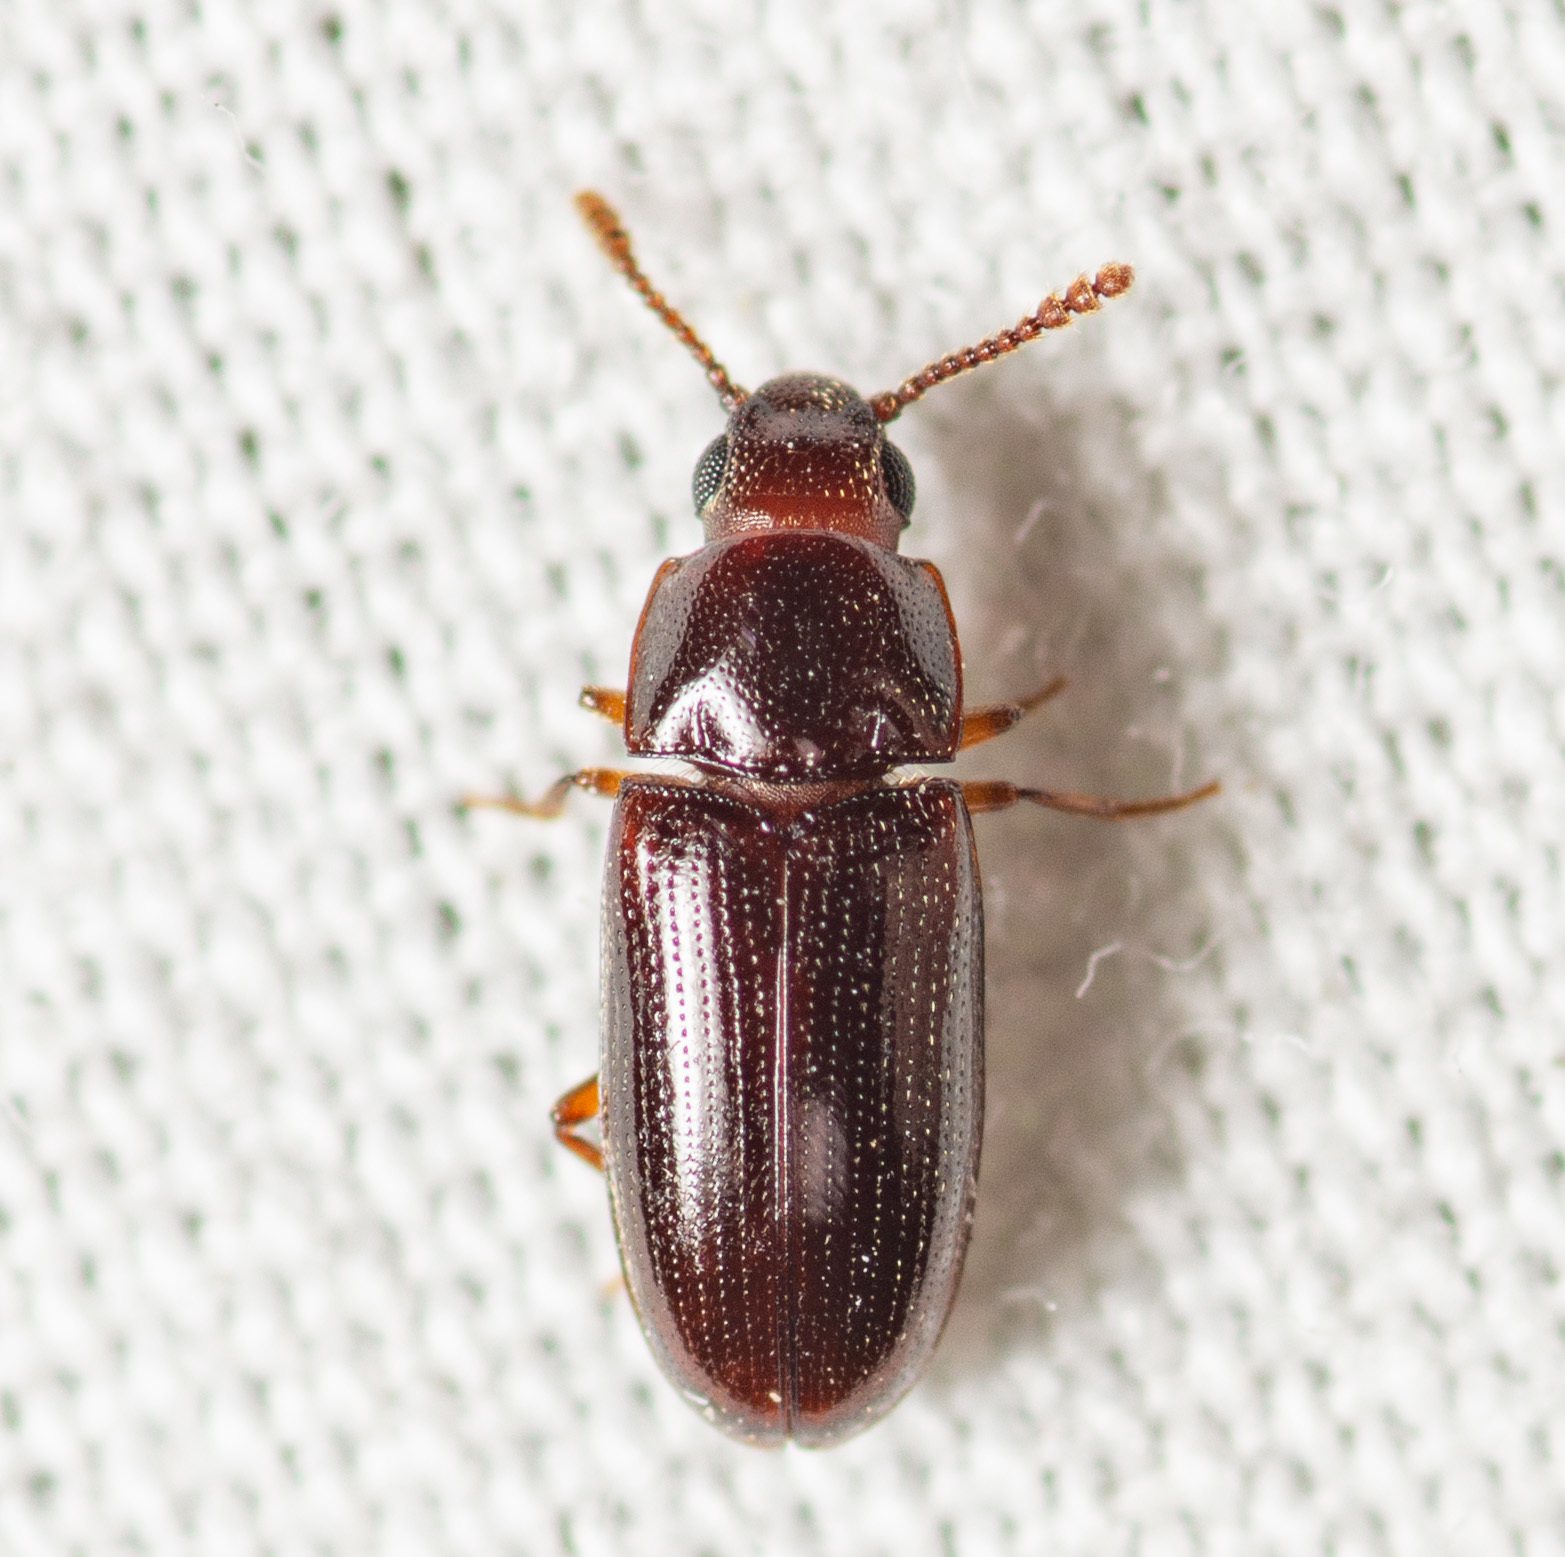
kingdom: Animalia
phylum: Arthropoda
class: Insecta
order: Coleoptera
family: Erotylidae
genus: Pharaxonotha
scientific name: Pharaxonotha kirschii
